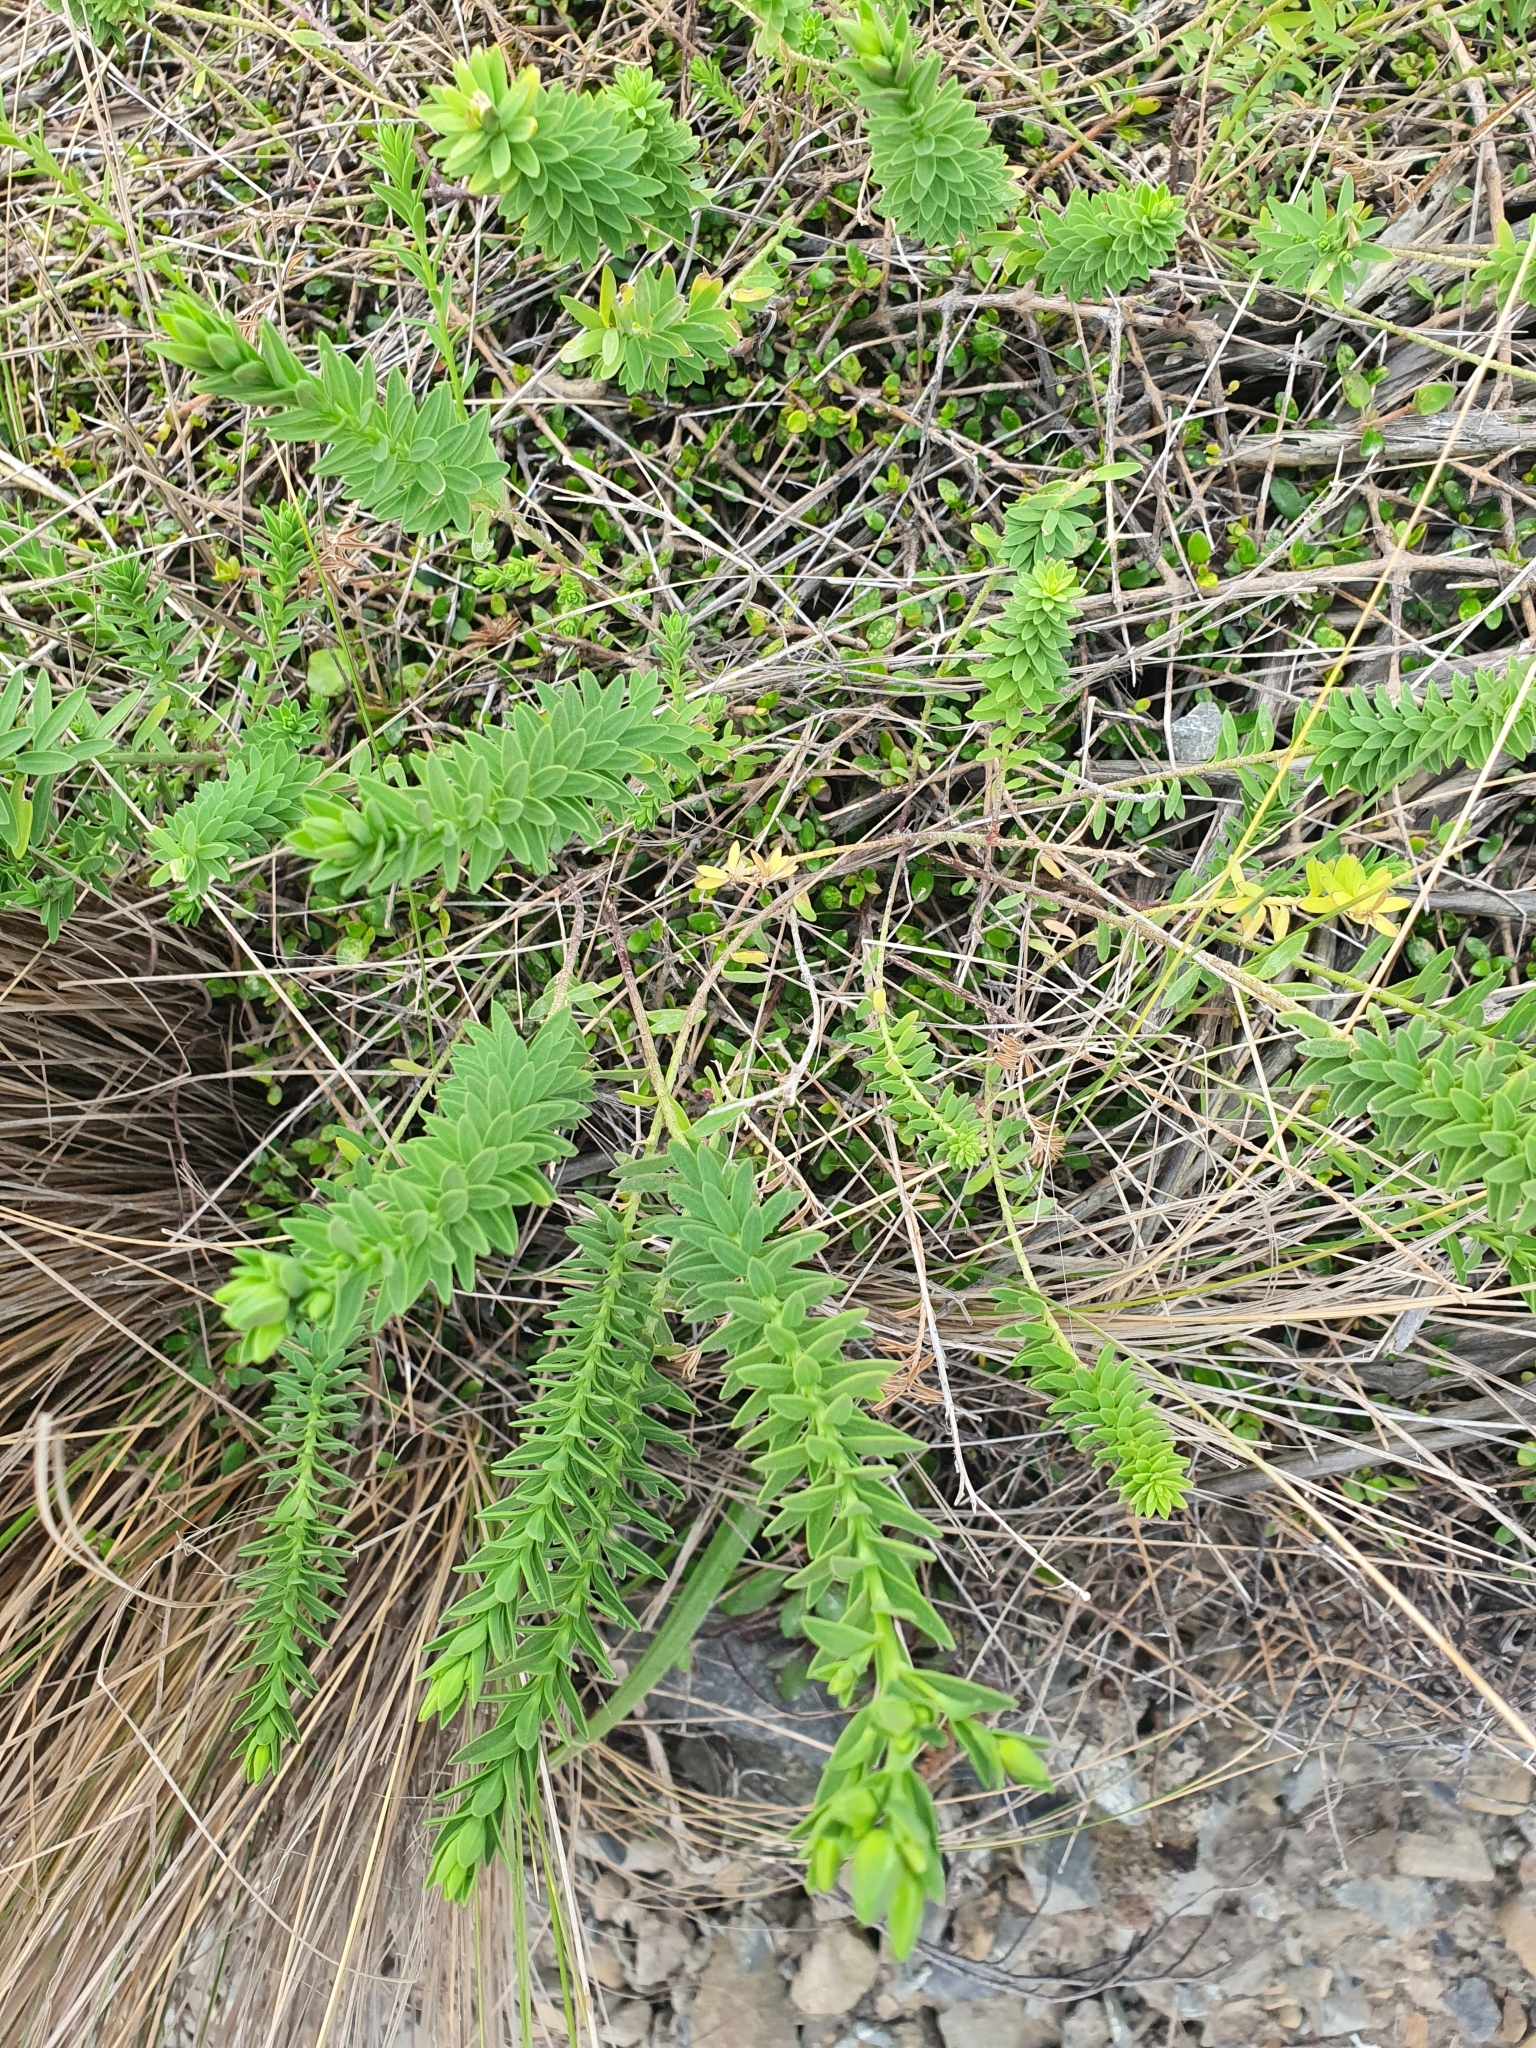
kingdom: Plantae
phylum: Tracheophyta
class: Magnoliopsida
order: Malpighiales
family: Linaceae
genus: Linum
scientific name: Linum monogynum
